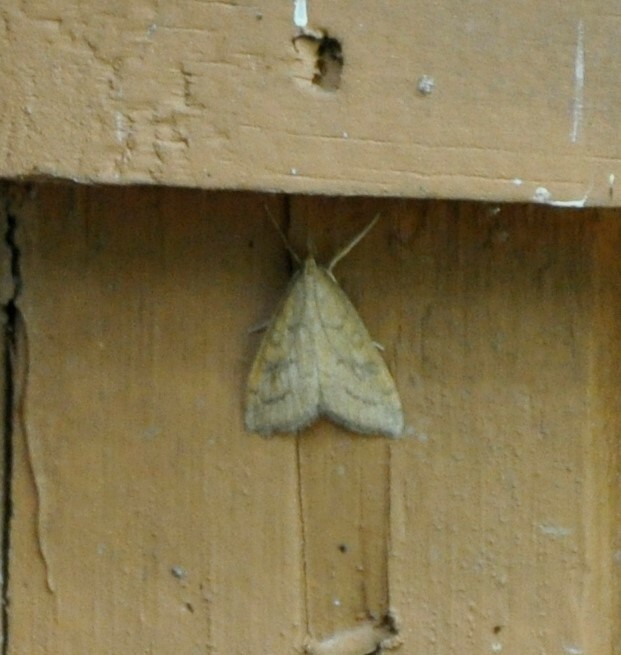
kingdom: Animalia
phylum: Arthropoda
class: Insecta
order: Lepidoptera
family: Crambidae
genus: Udea
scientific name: Udea rubigalis
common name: Celery leaftier moth
